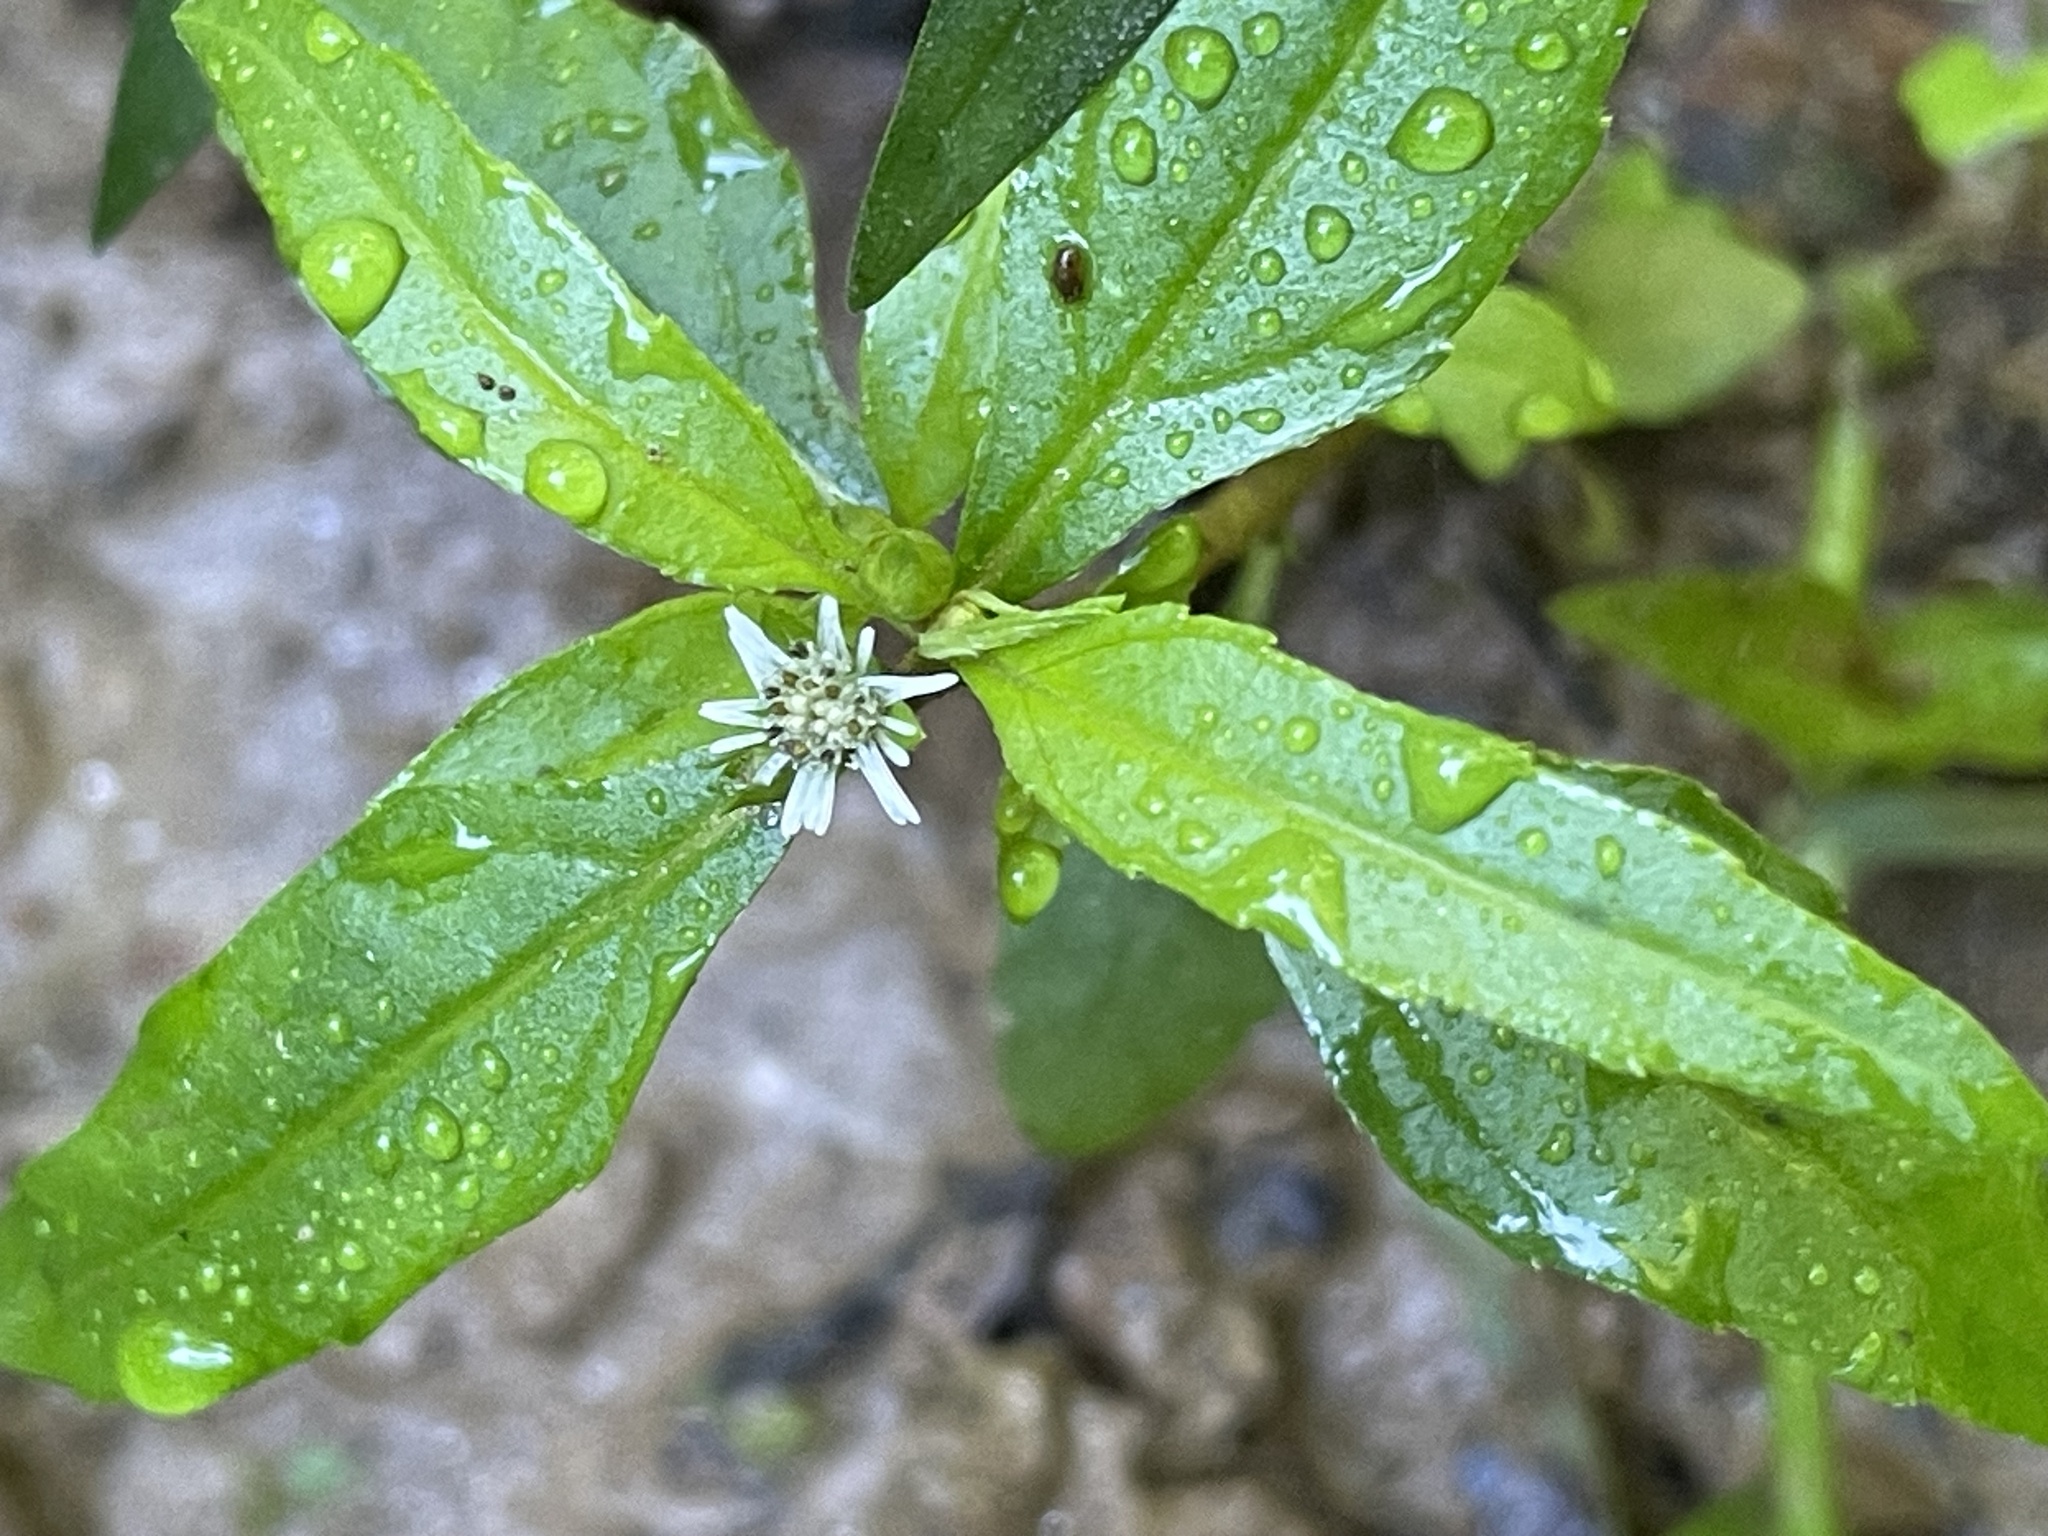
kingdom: Plantae
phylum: Tracheophyta
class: Magnoliopsida
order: Asterales
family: Asteraceae
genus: Eclipta
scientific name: Eclipta prostrata
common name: False daisy
